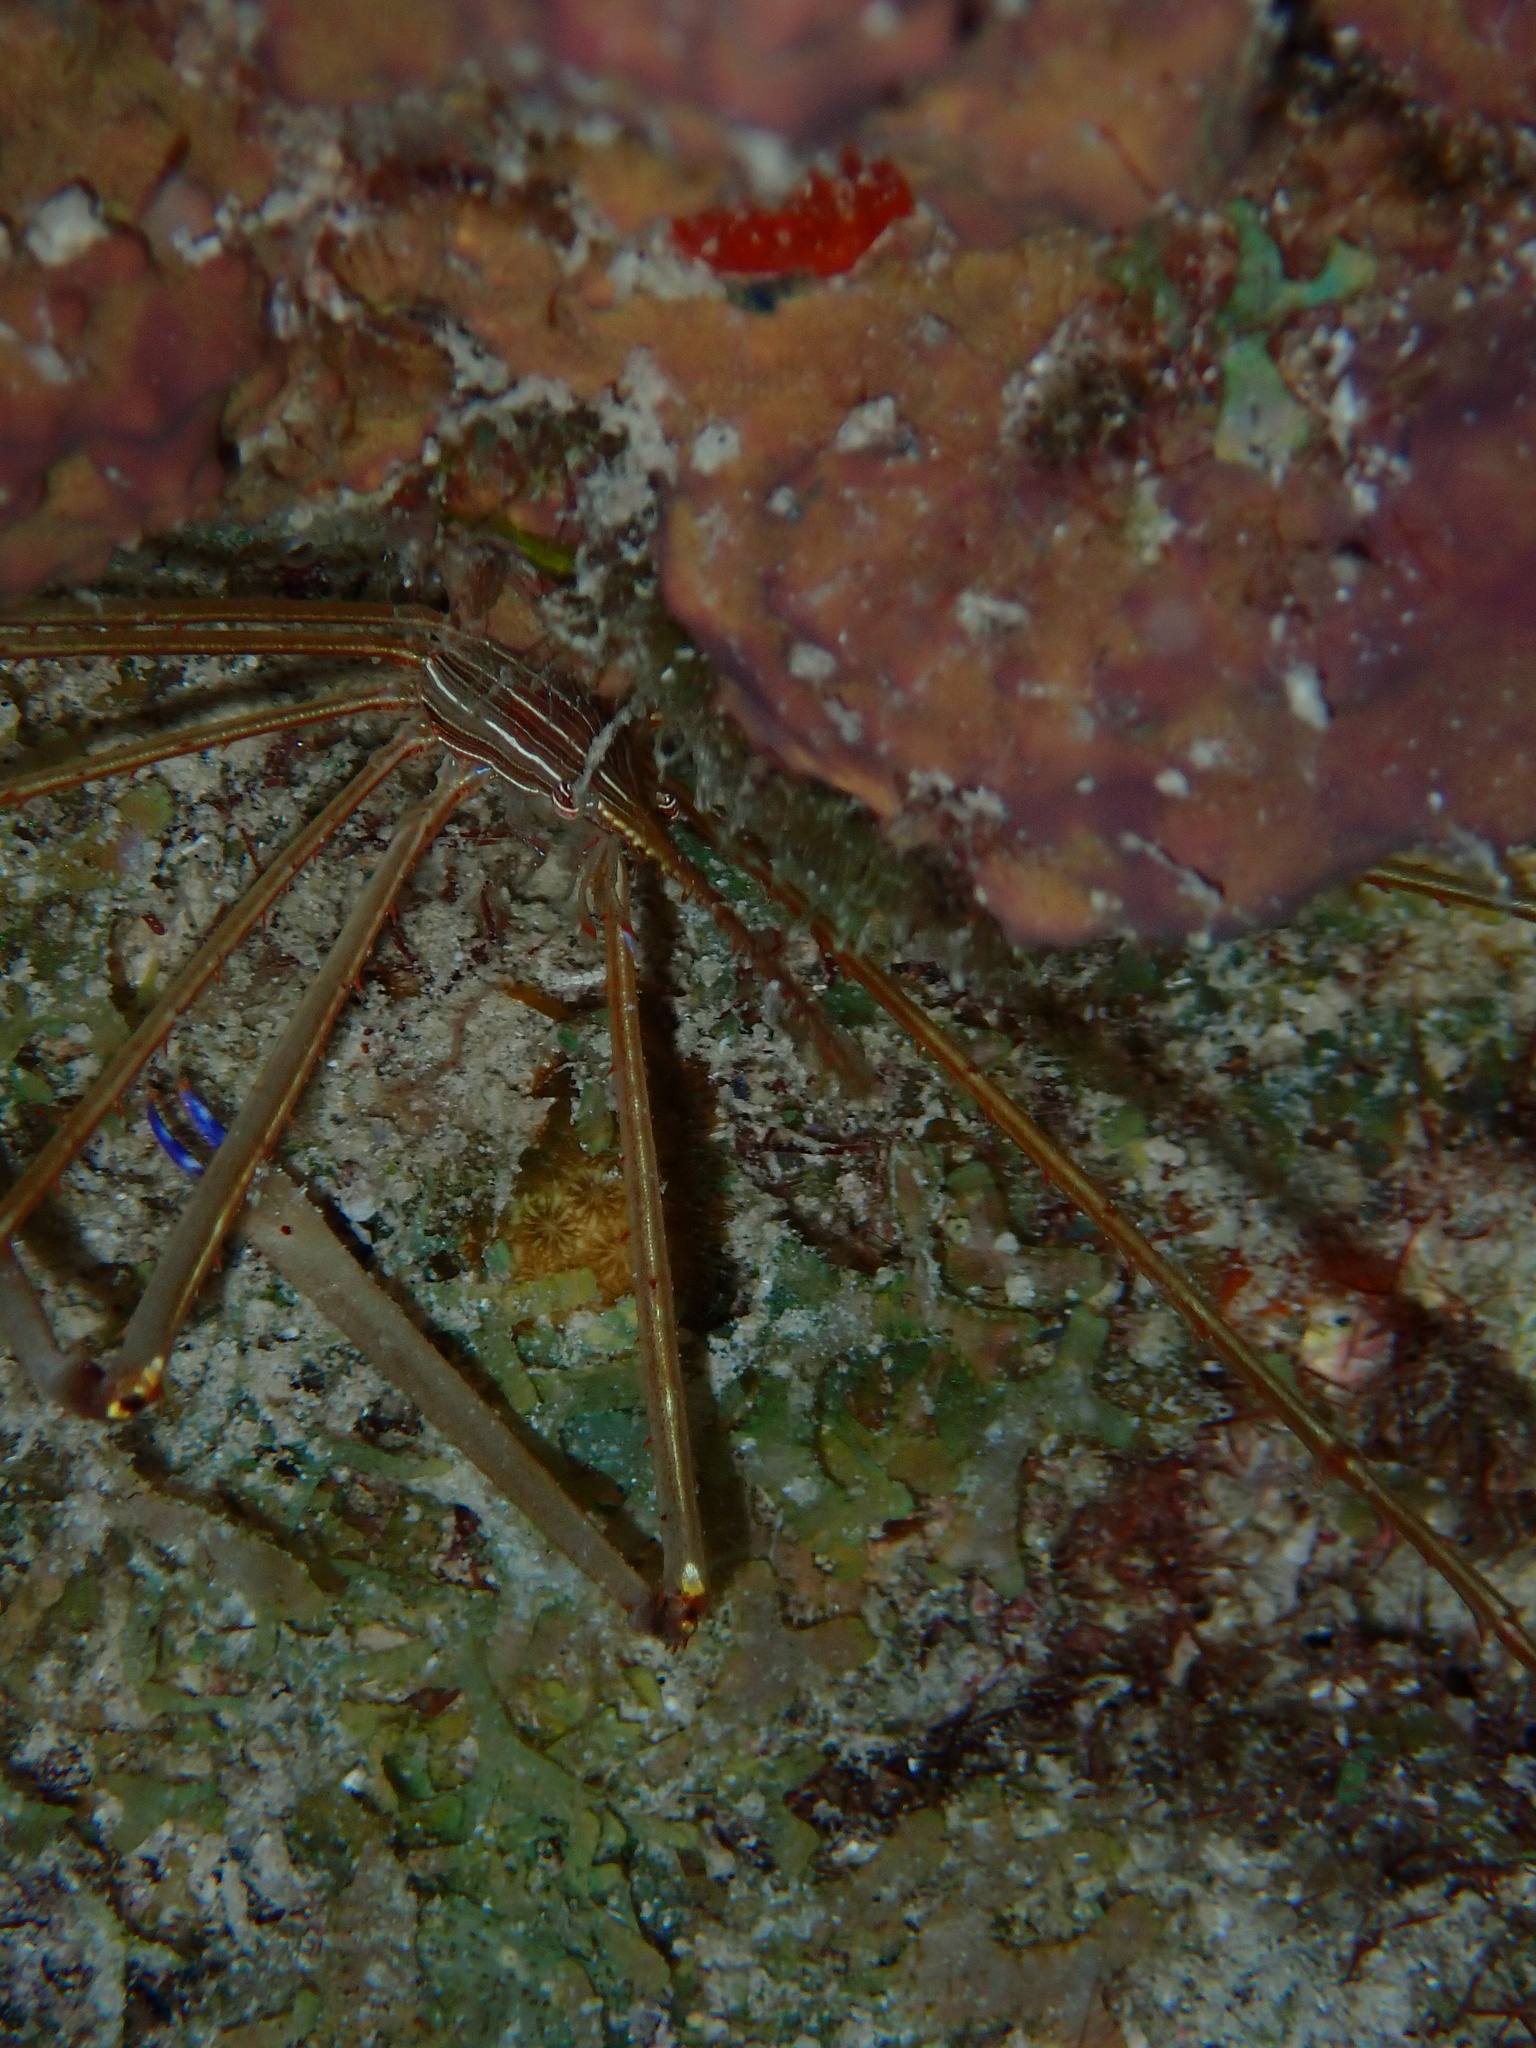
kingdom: Animalia
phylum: Arthropoda
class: Malacostraca
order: Decapoda
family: Inachoididae
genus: Stenorhynchus
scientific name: Stenorhynchus seticornis
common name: Arrow crab
